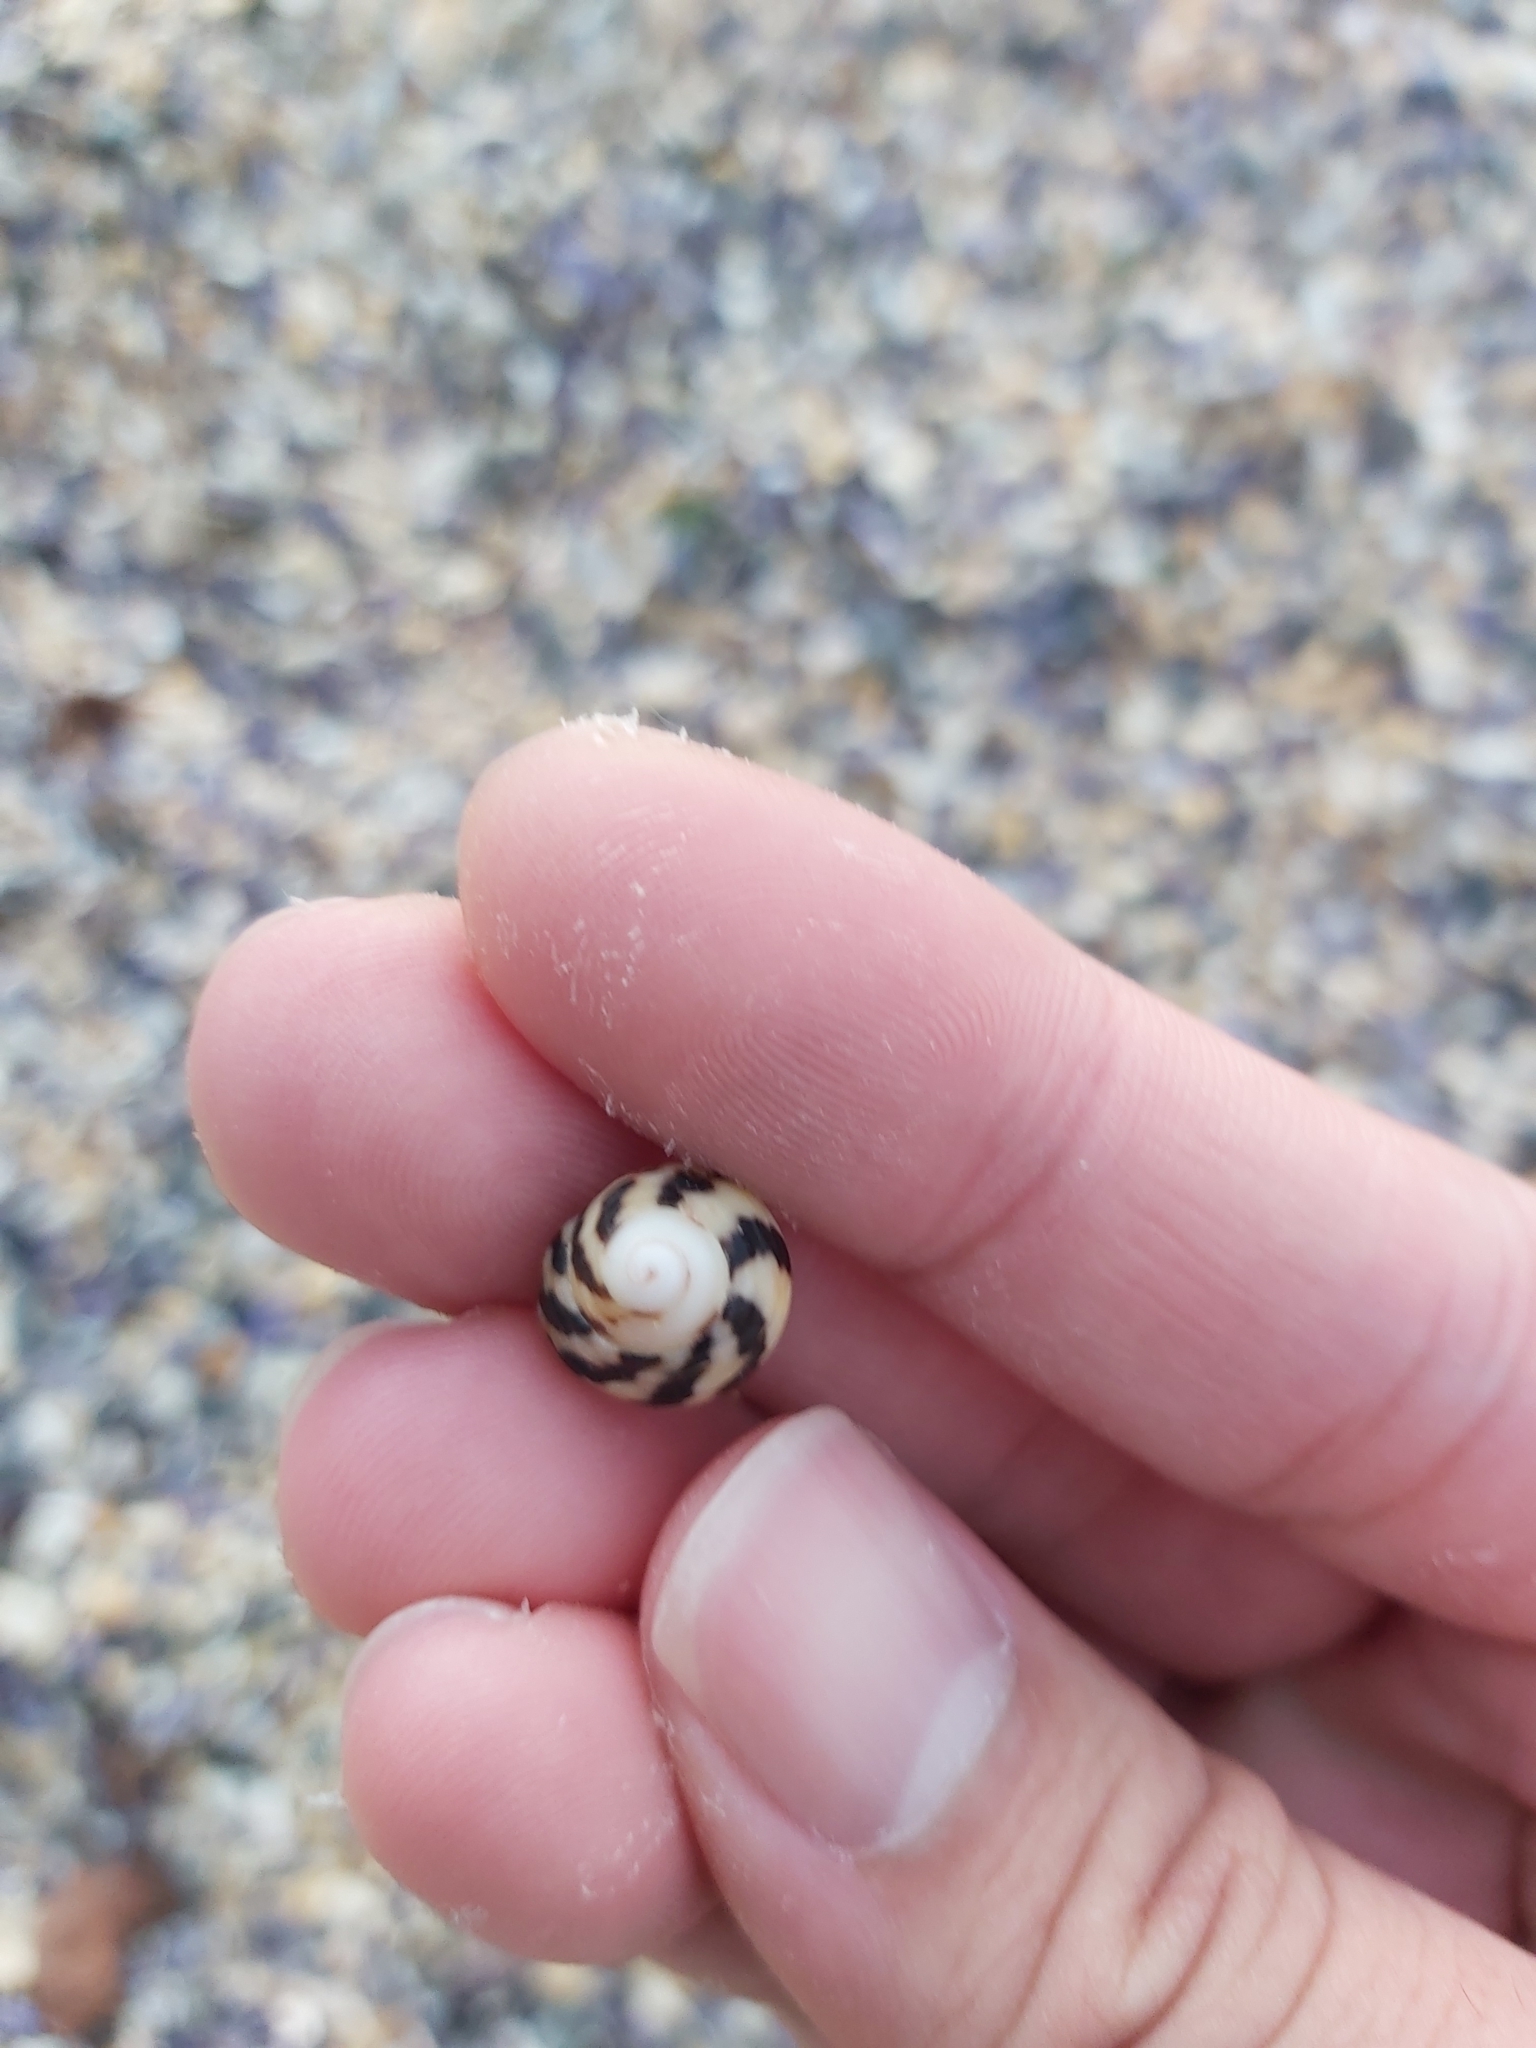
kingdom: Animalia
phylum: Mollusca
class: Gastropoda
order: Trochida
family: Trochidae
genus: Austrocochlea
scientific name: Austrocochlea porcata
